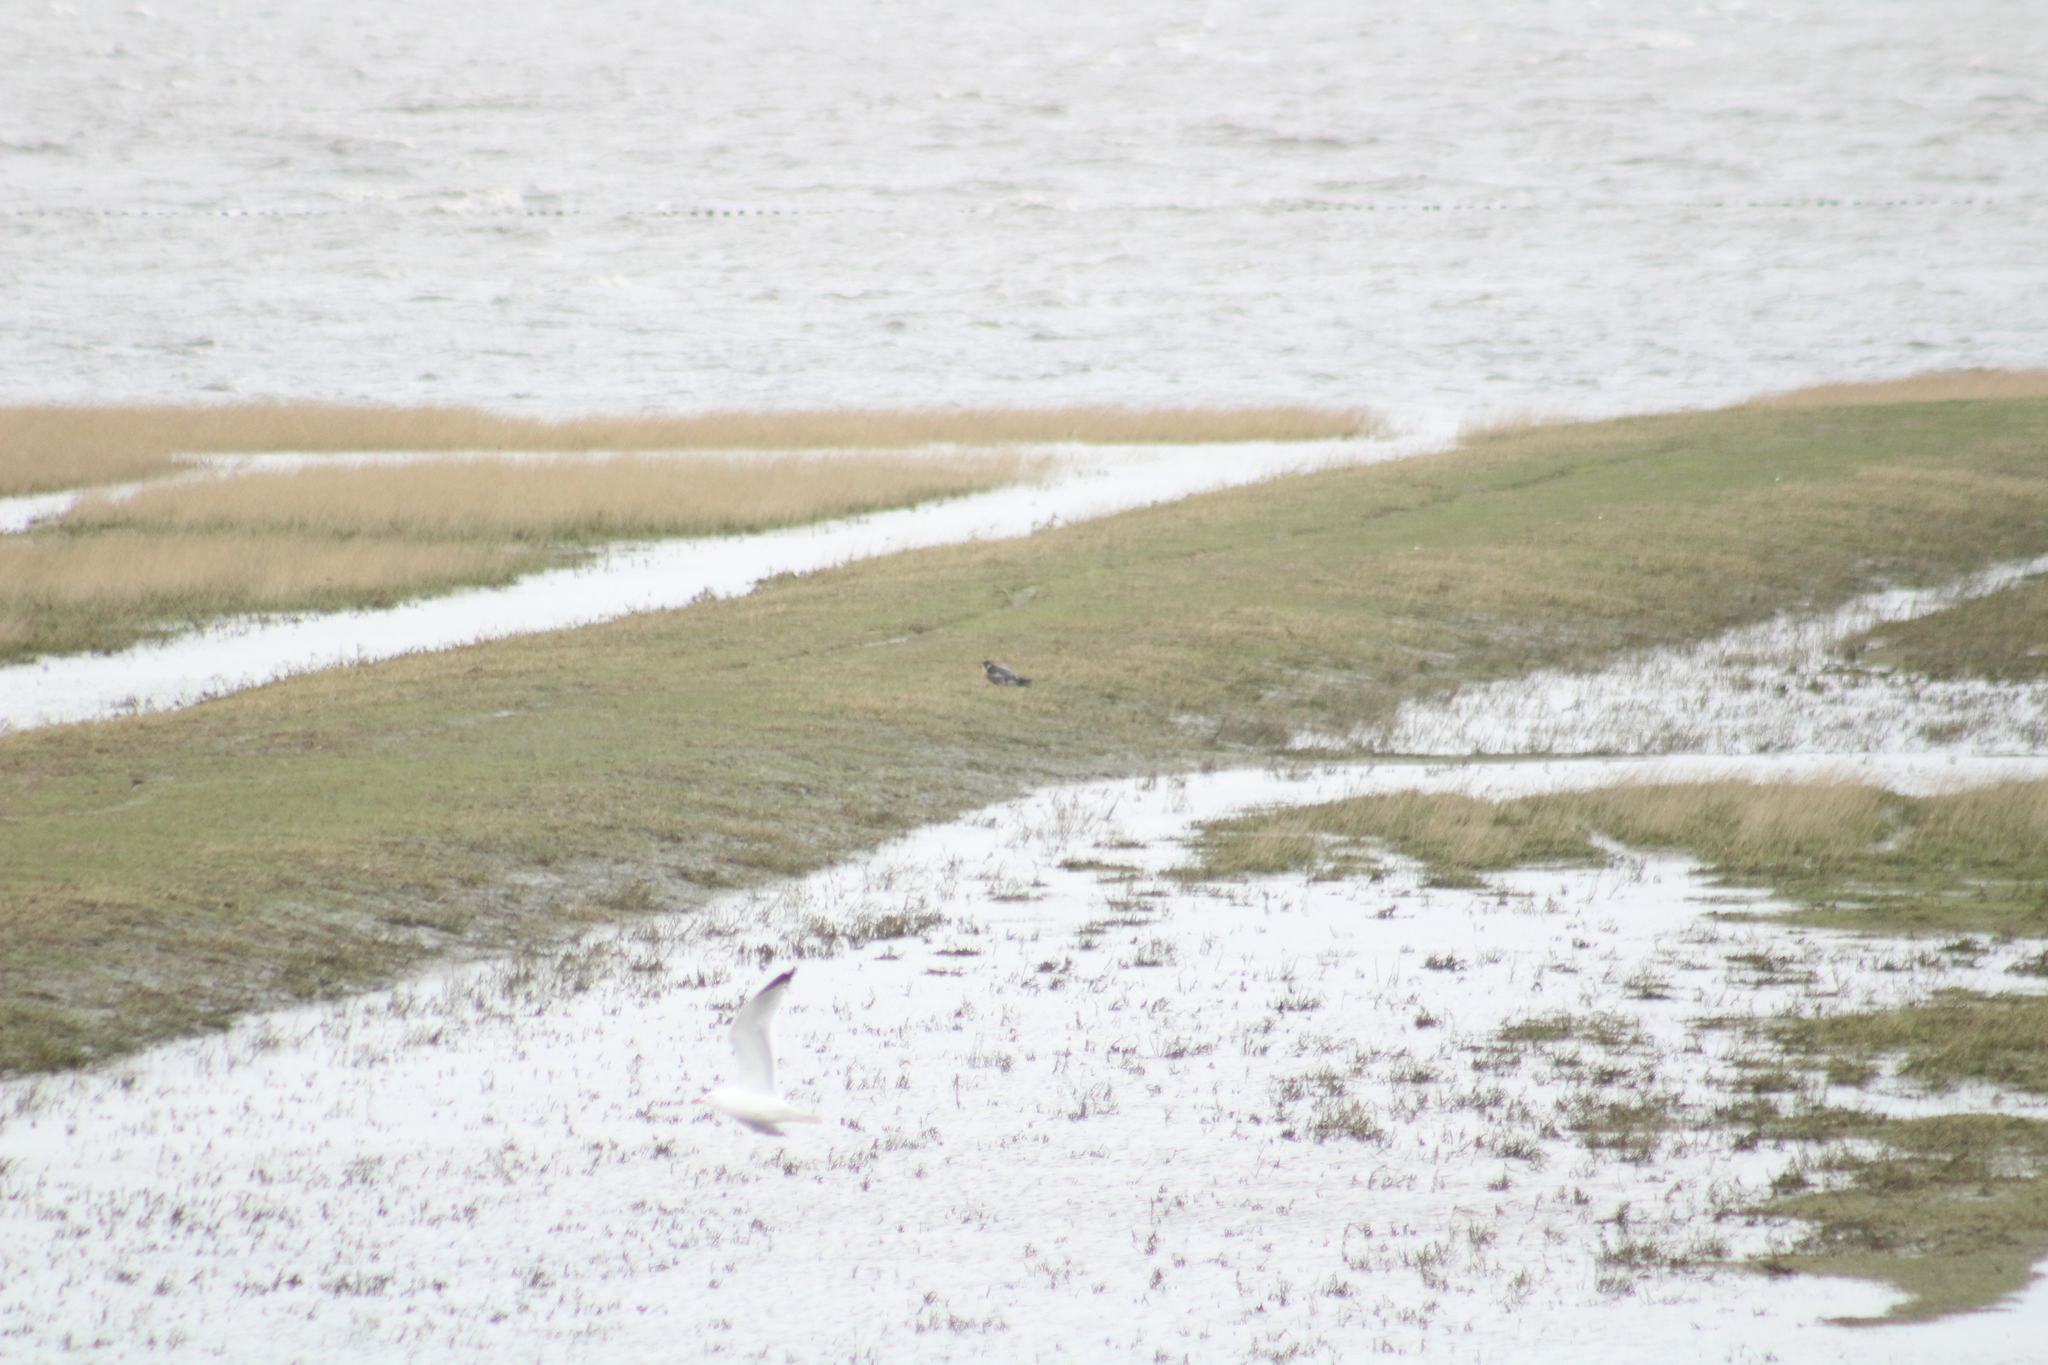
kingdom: Animalia
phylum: Chordata
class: Aves
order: Falconiformes
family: Falconidae
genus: Falco
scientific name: Falco peregrinus
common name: Peregrine falcon
